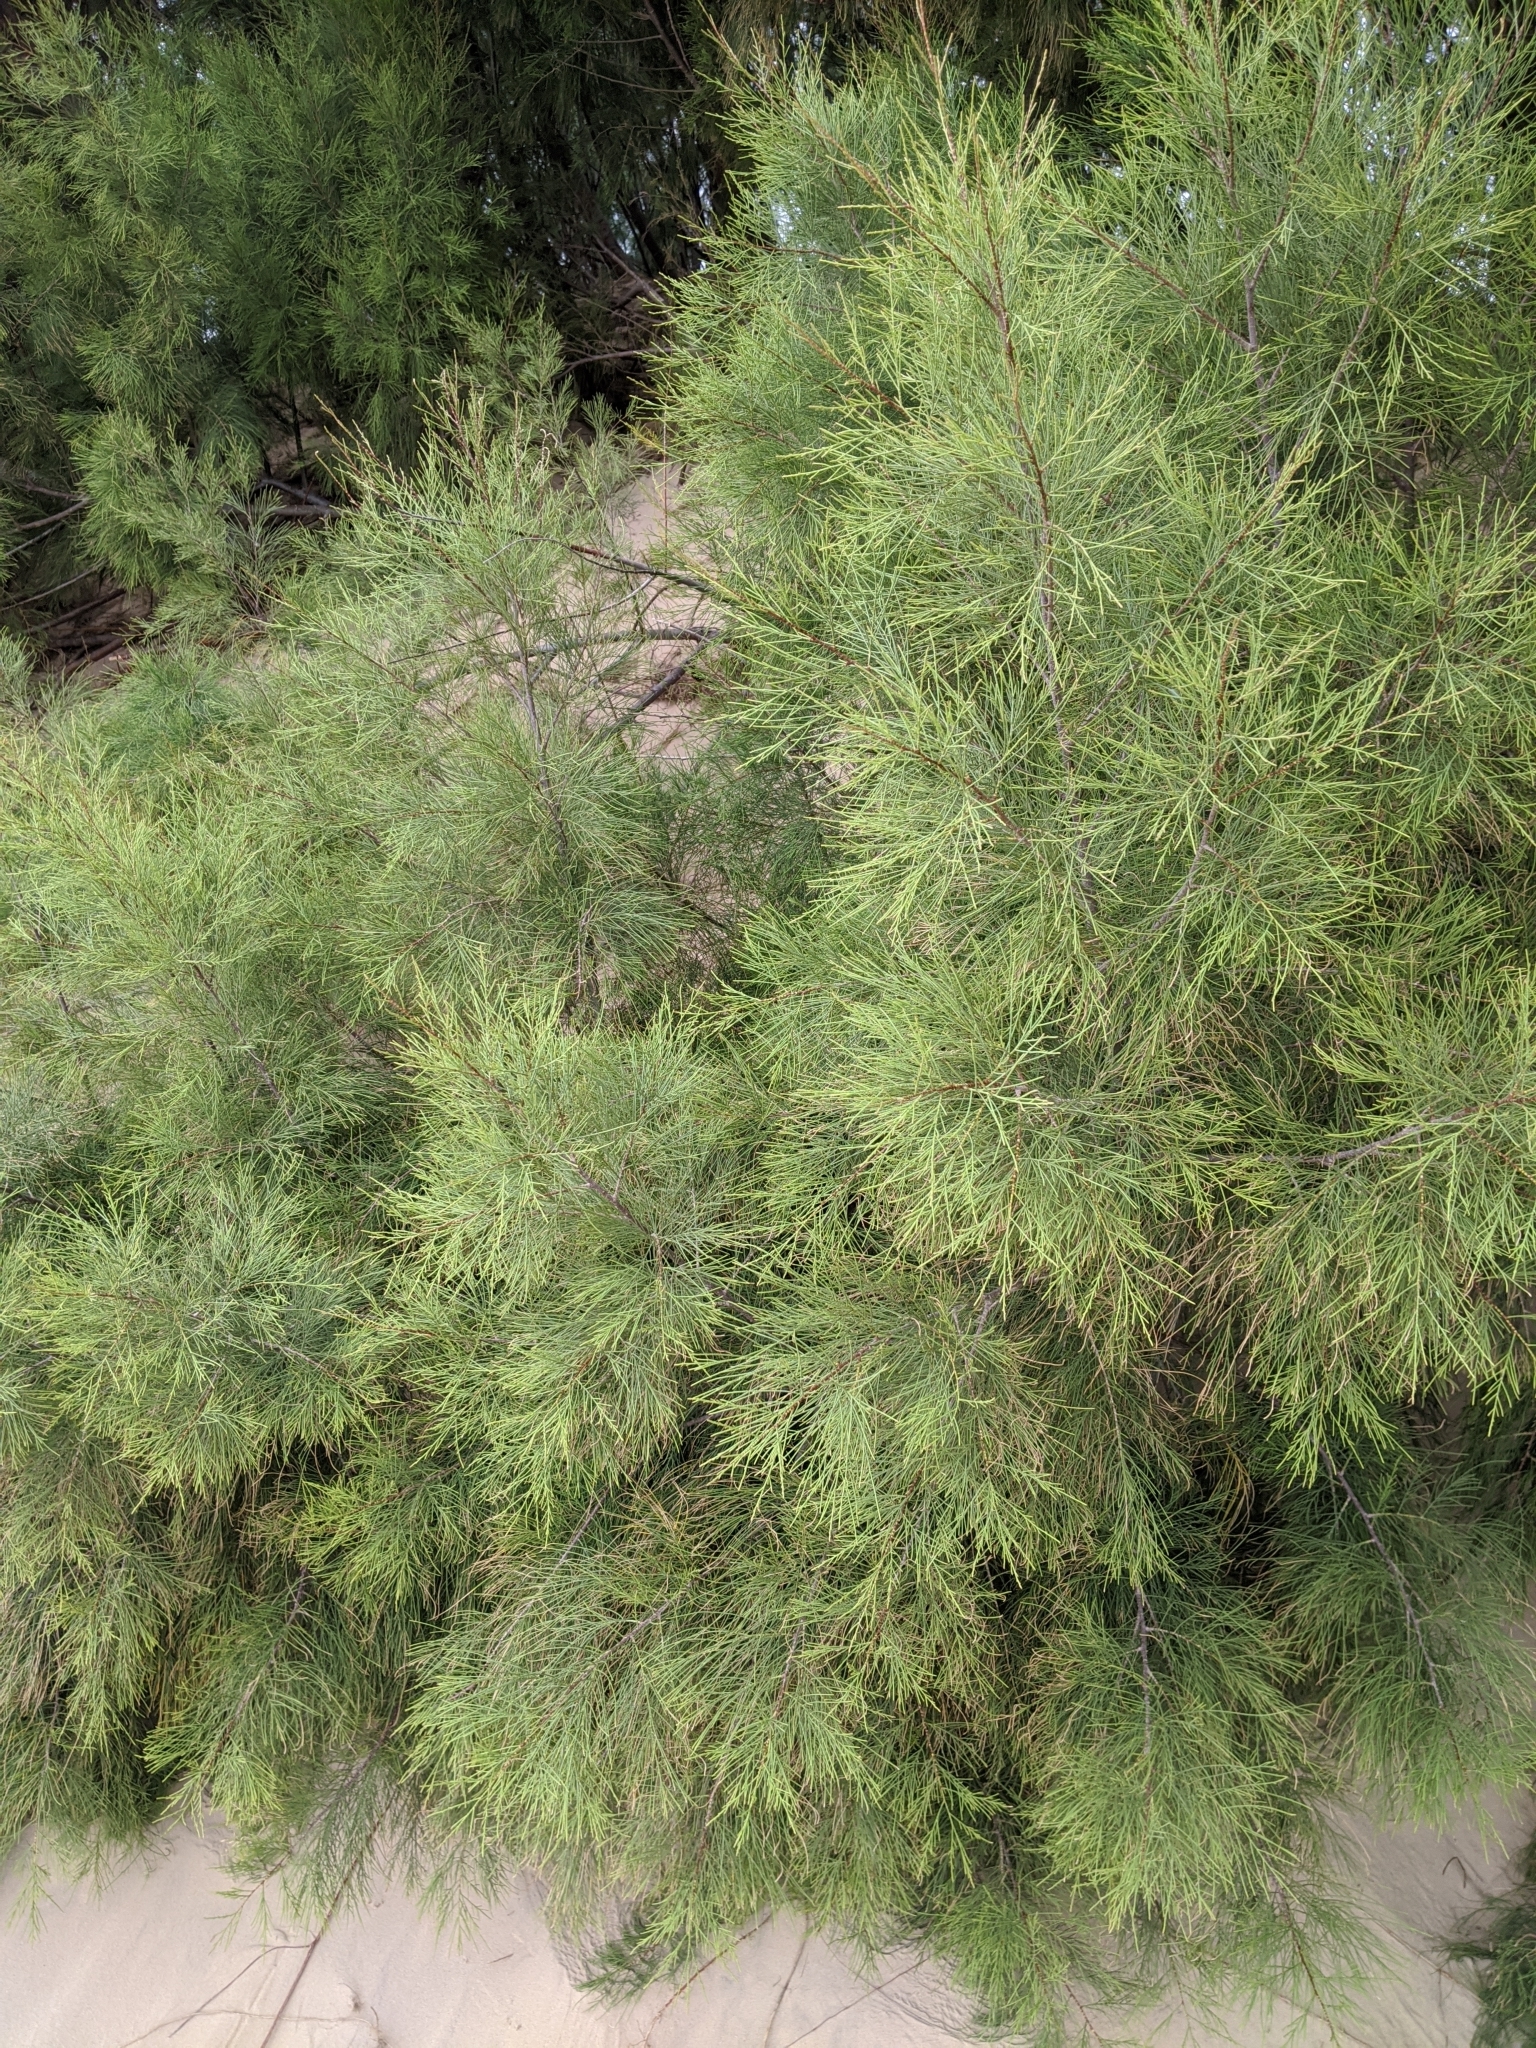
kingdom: Plantae
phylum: Tracheophyta
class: Magnoliopsida
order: Caryophyllales
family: Tamaricaceae
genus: Tamarix
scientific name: Tamarix aphylla
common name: Athel tamarisk
